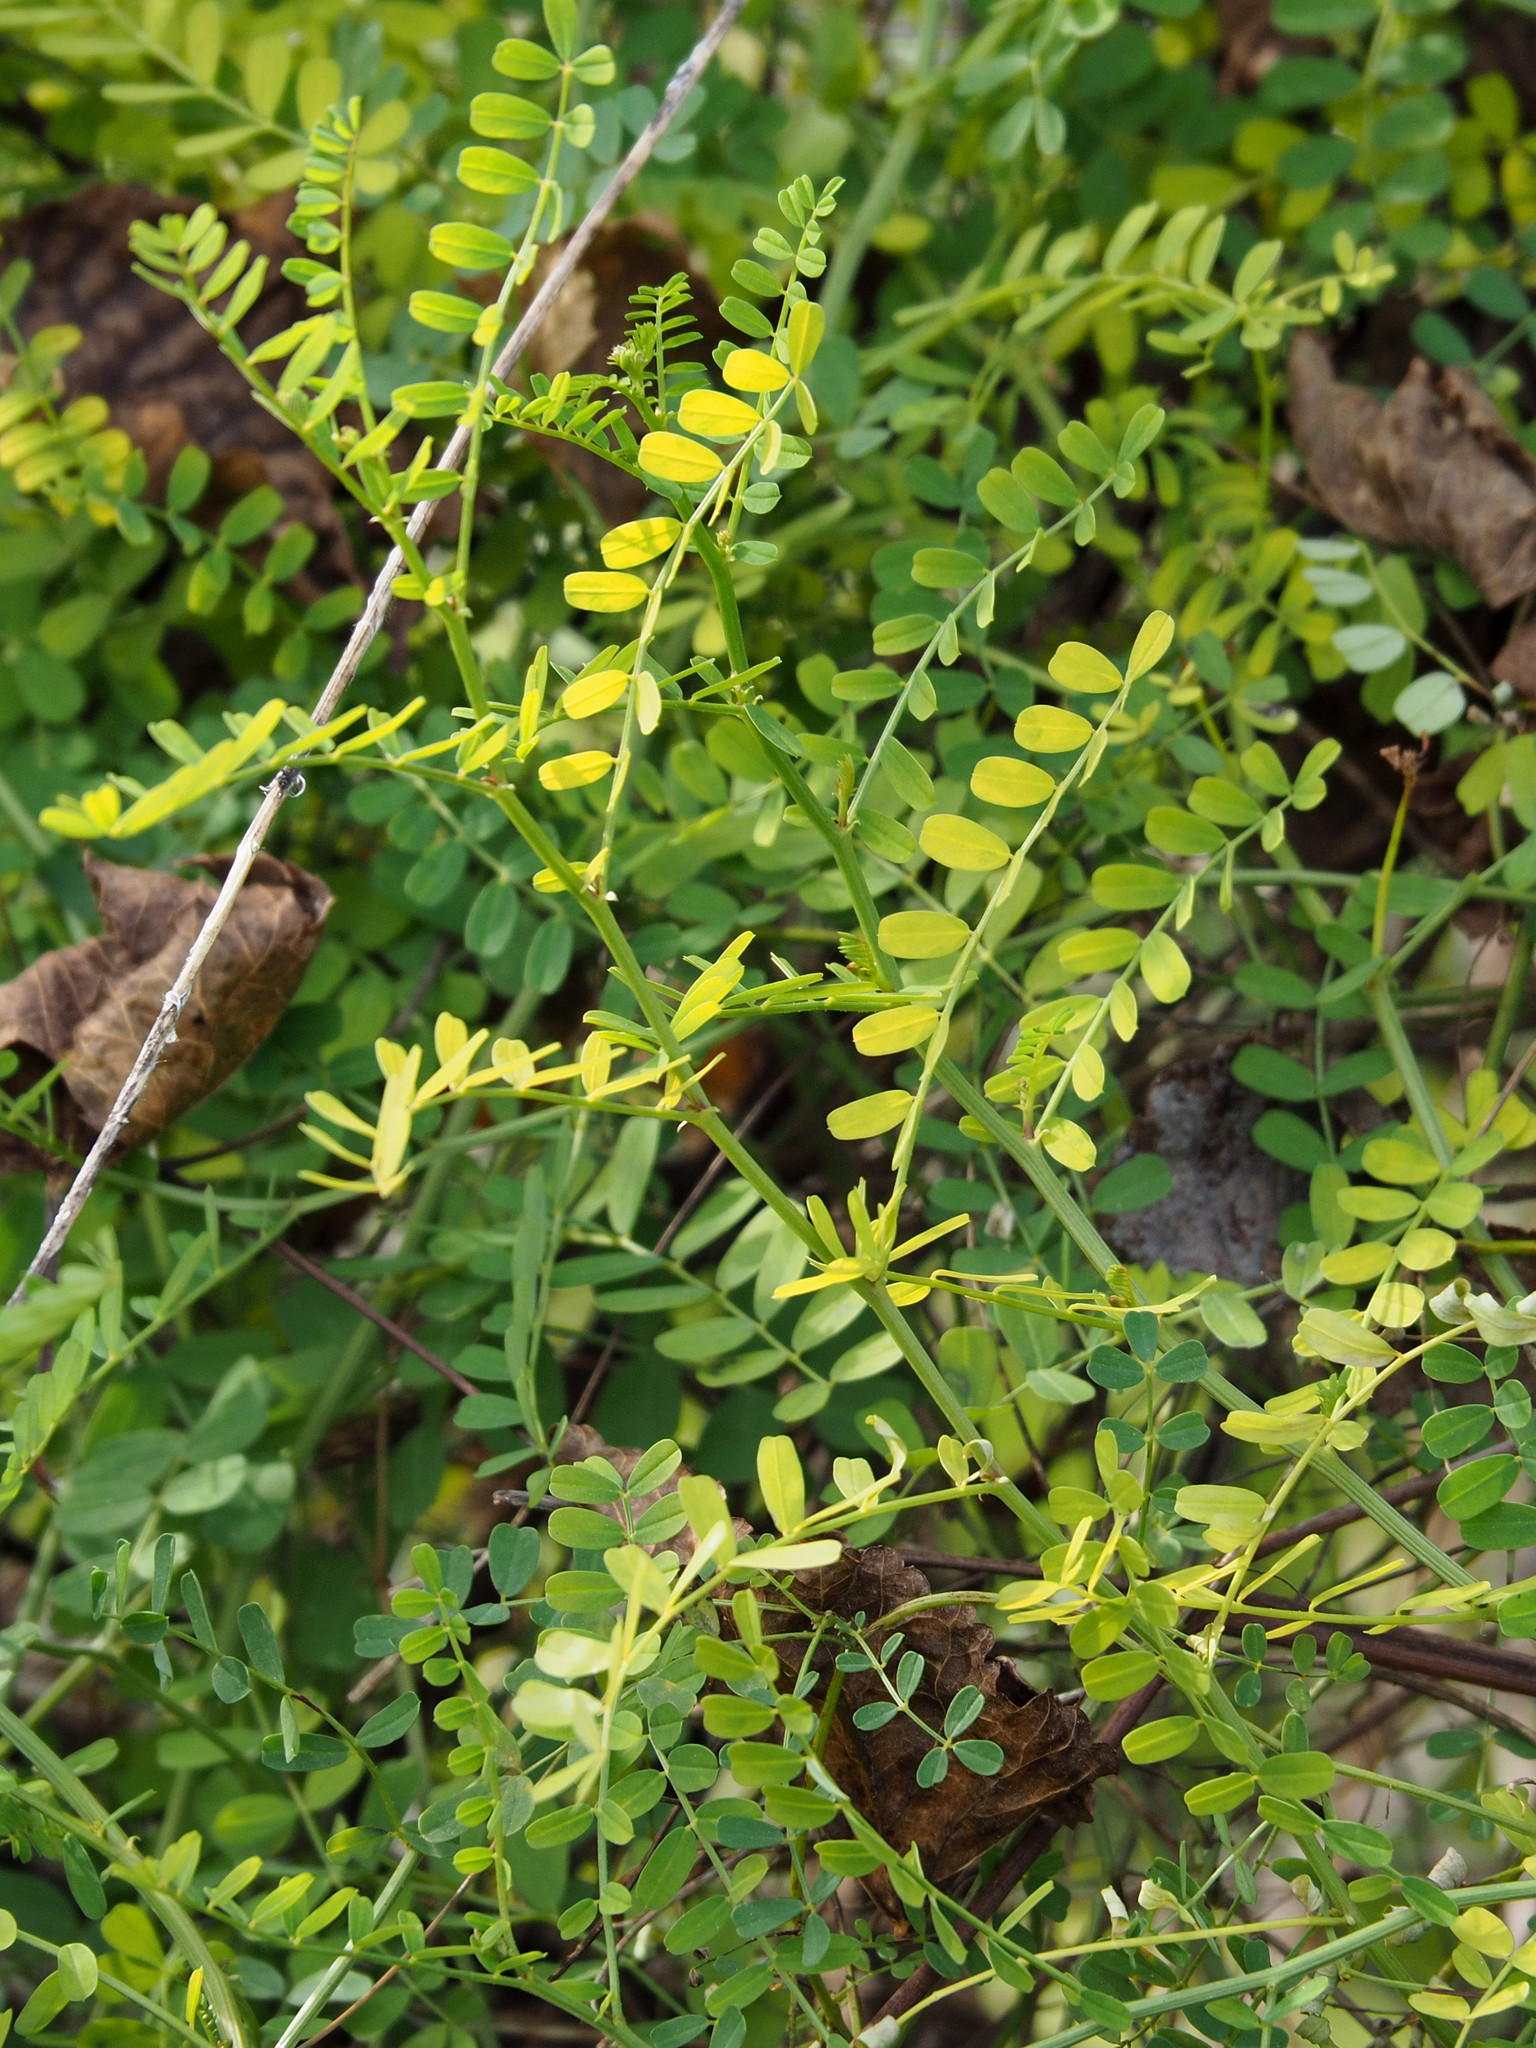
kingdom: Plantae
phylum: Tracheophyta
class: Magnoliopsida
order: Fabales
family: Fabaceae
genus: Coronilla
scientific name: Coronilla varia
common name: Crownvetch
